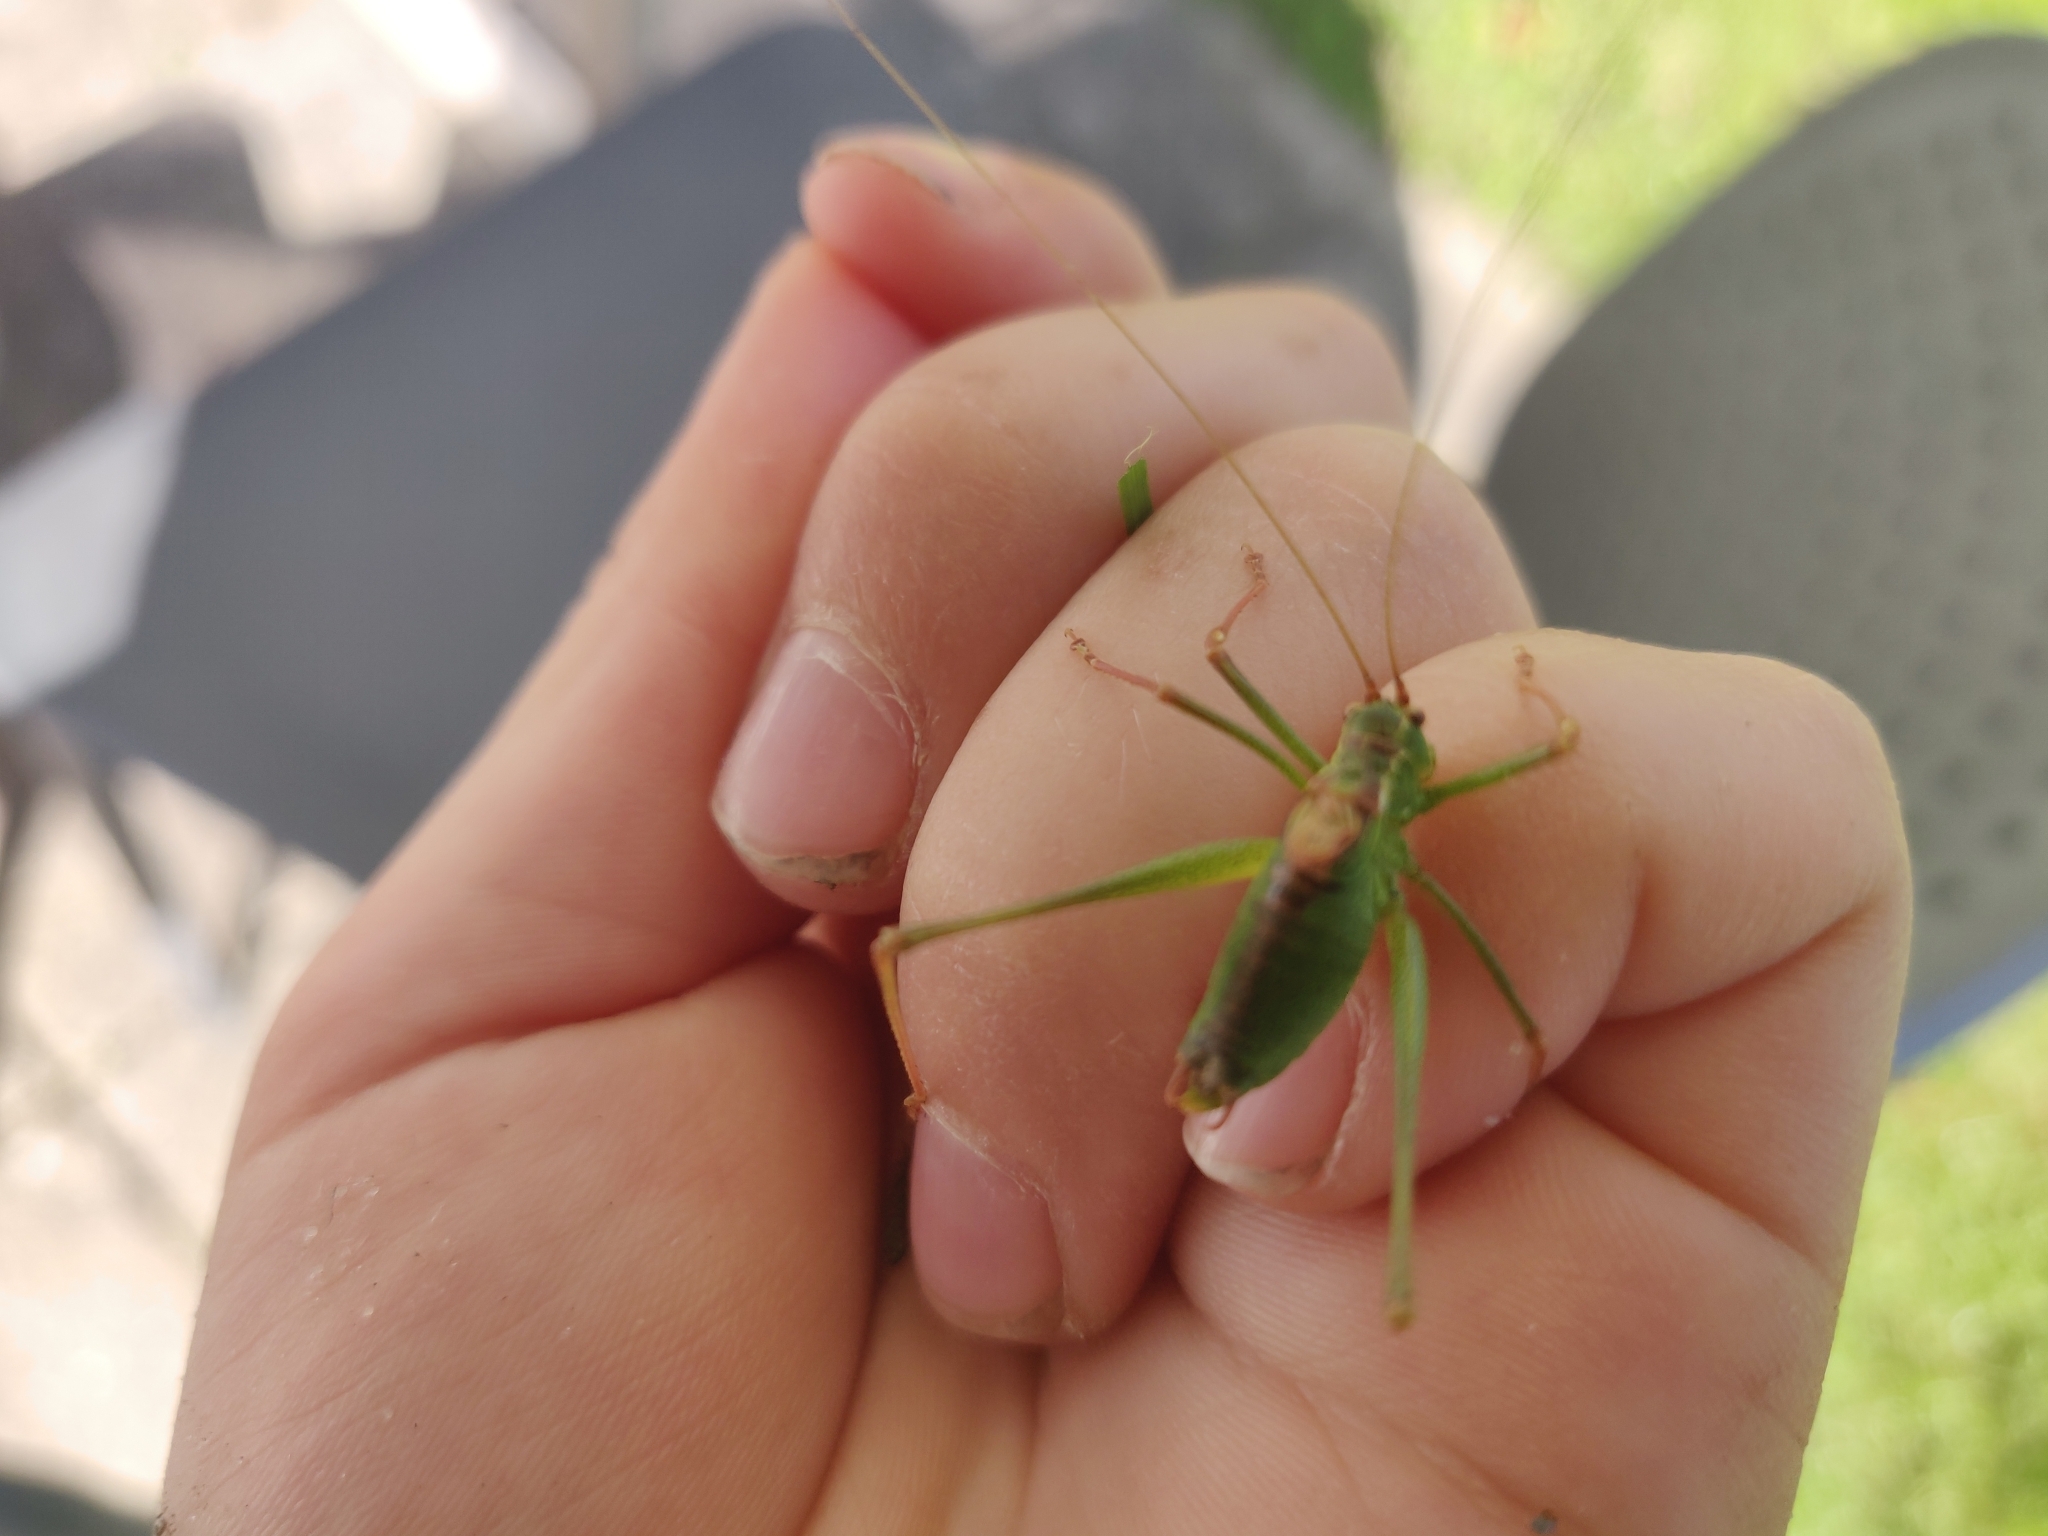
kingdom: Animalia
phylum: Arthropoda
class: Insecta
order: Orthoptera
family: Tettigoniidae
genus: Leptophyes
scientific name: Leptophyes punctatissima
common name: Speckled bush-cricket
